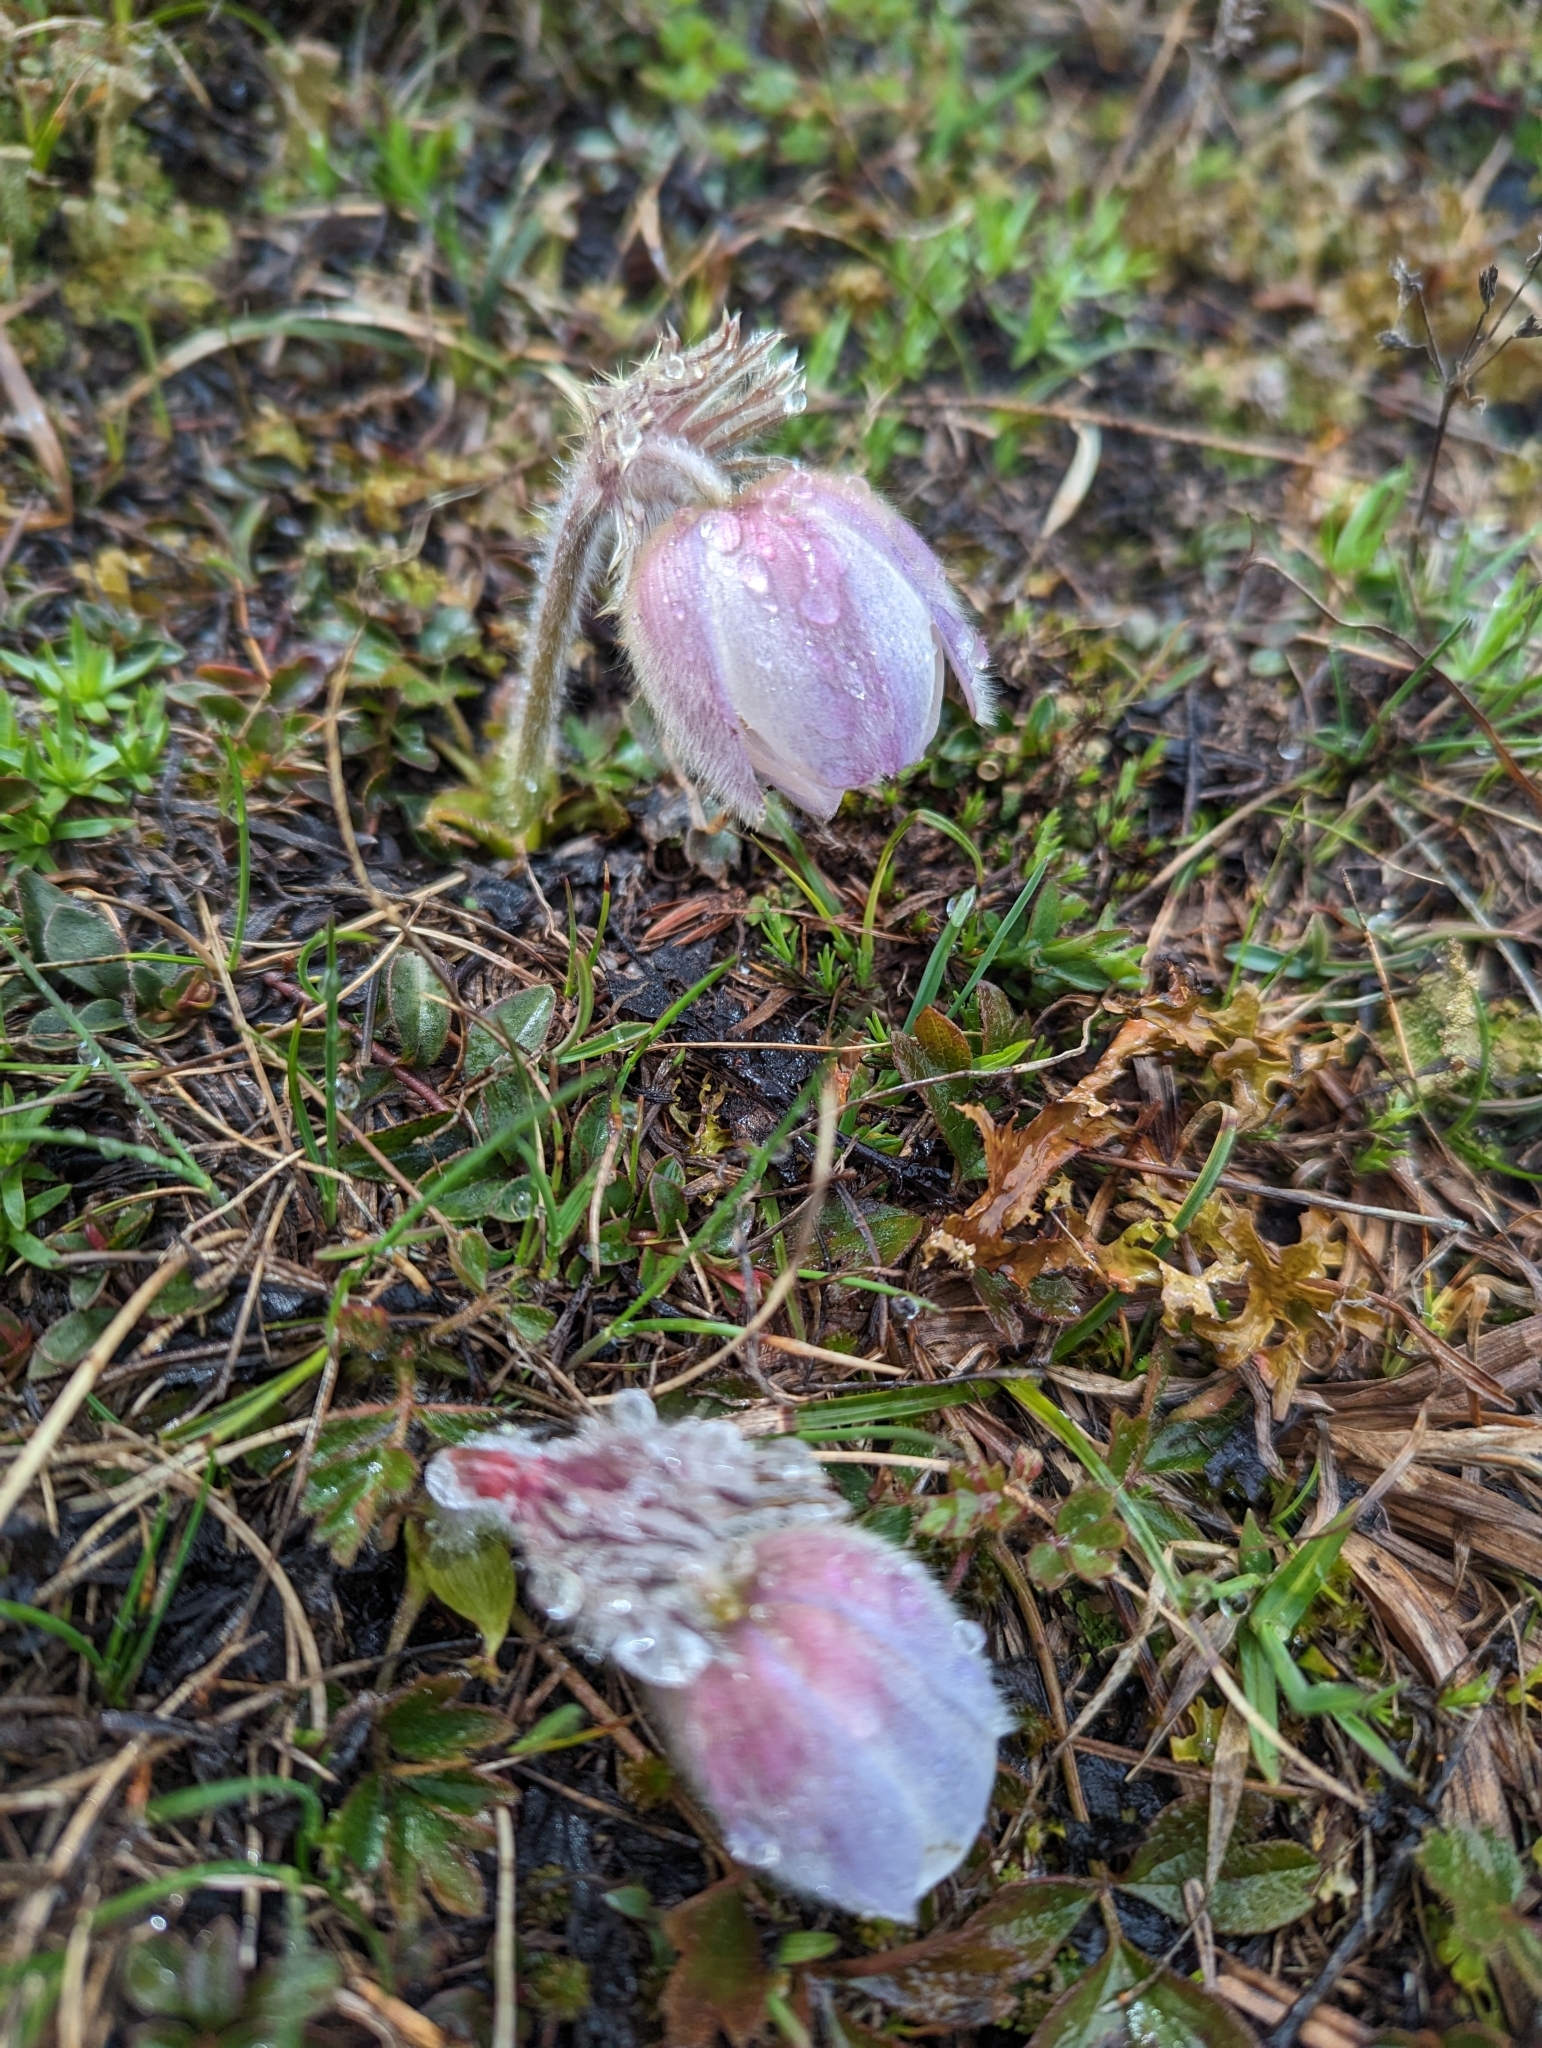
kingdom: Plantae
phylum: Tracheophyta
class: Magnoliopsida
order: Ranunculales
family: Ranunculaceae
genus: Pulsatilla
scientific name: Pulsatilla vernalis
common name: Spring pasque flower
